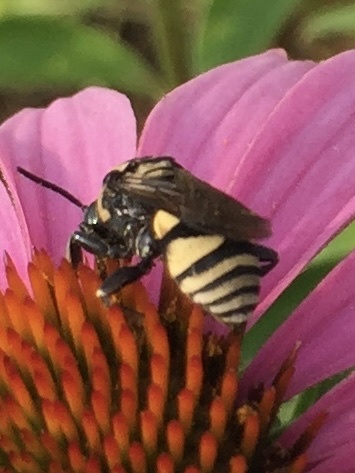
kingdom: Animalia
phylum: Arthropoda
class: Insecta
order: Hymenoptera
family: Apidae
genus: Triepeolus
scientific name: Triepeolus remigatus
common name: Squash longhorn-cuckoo
